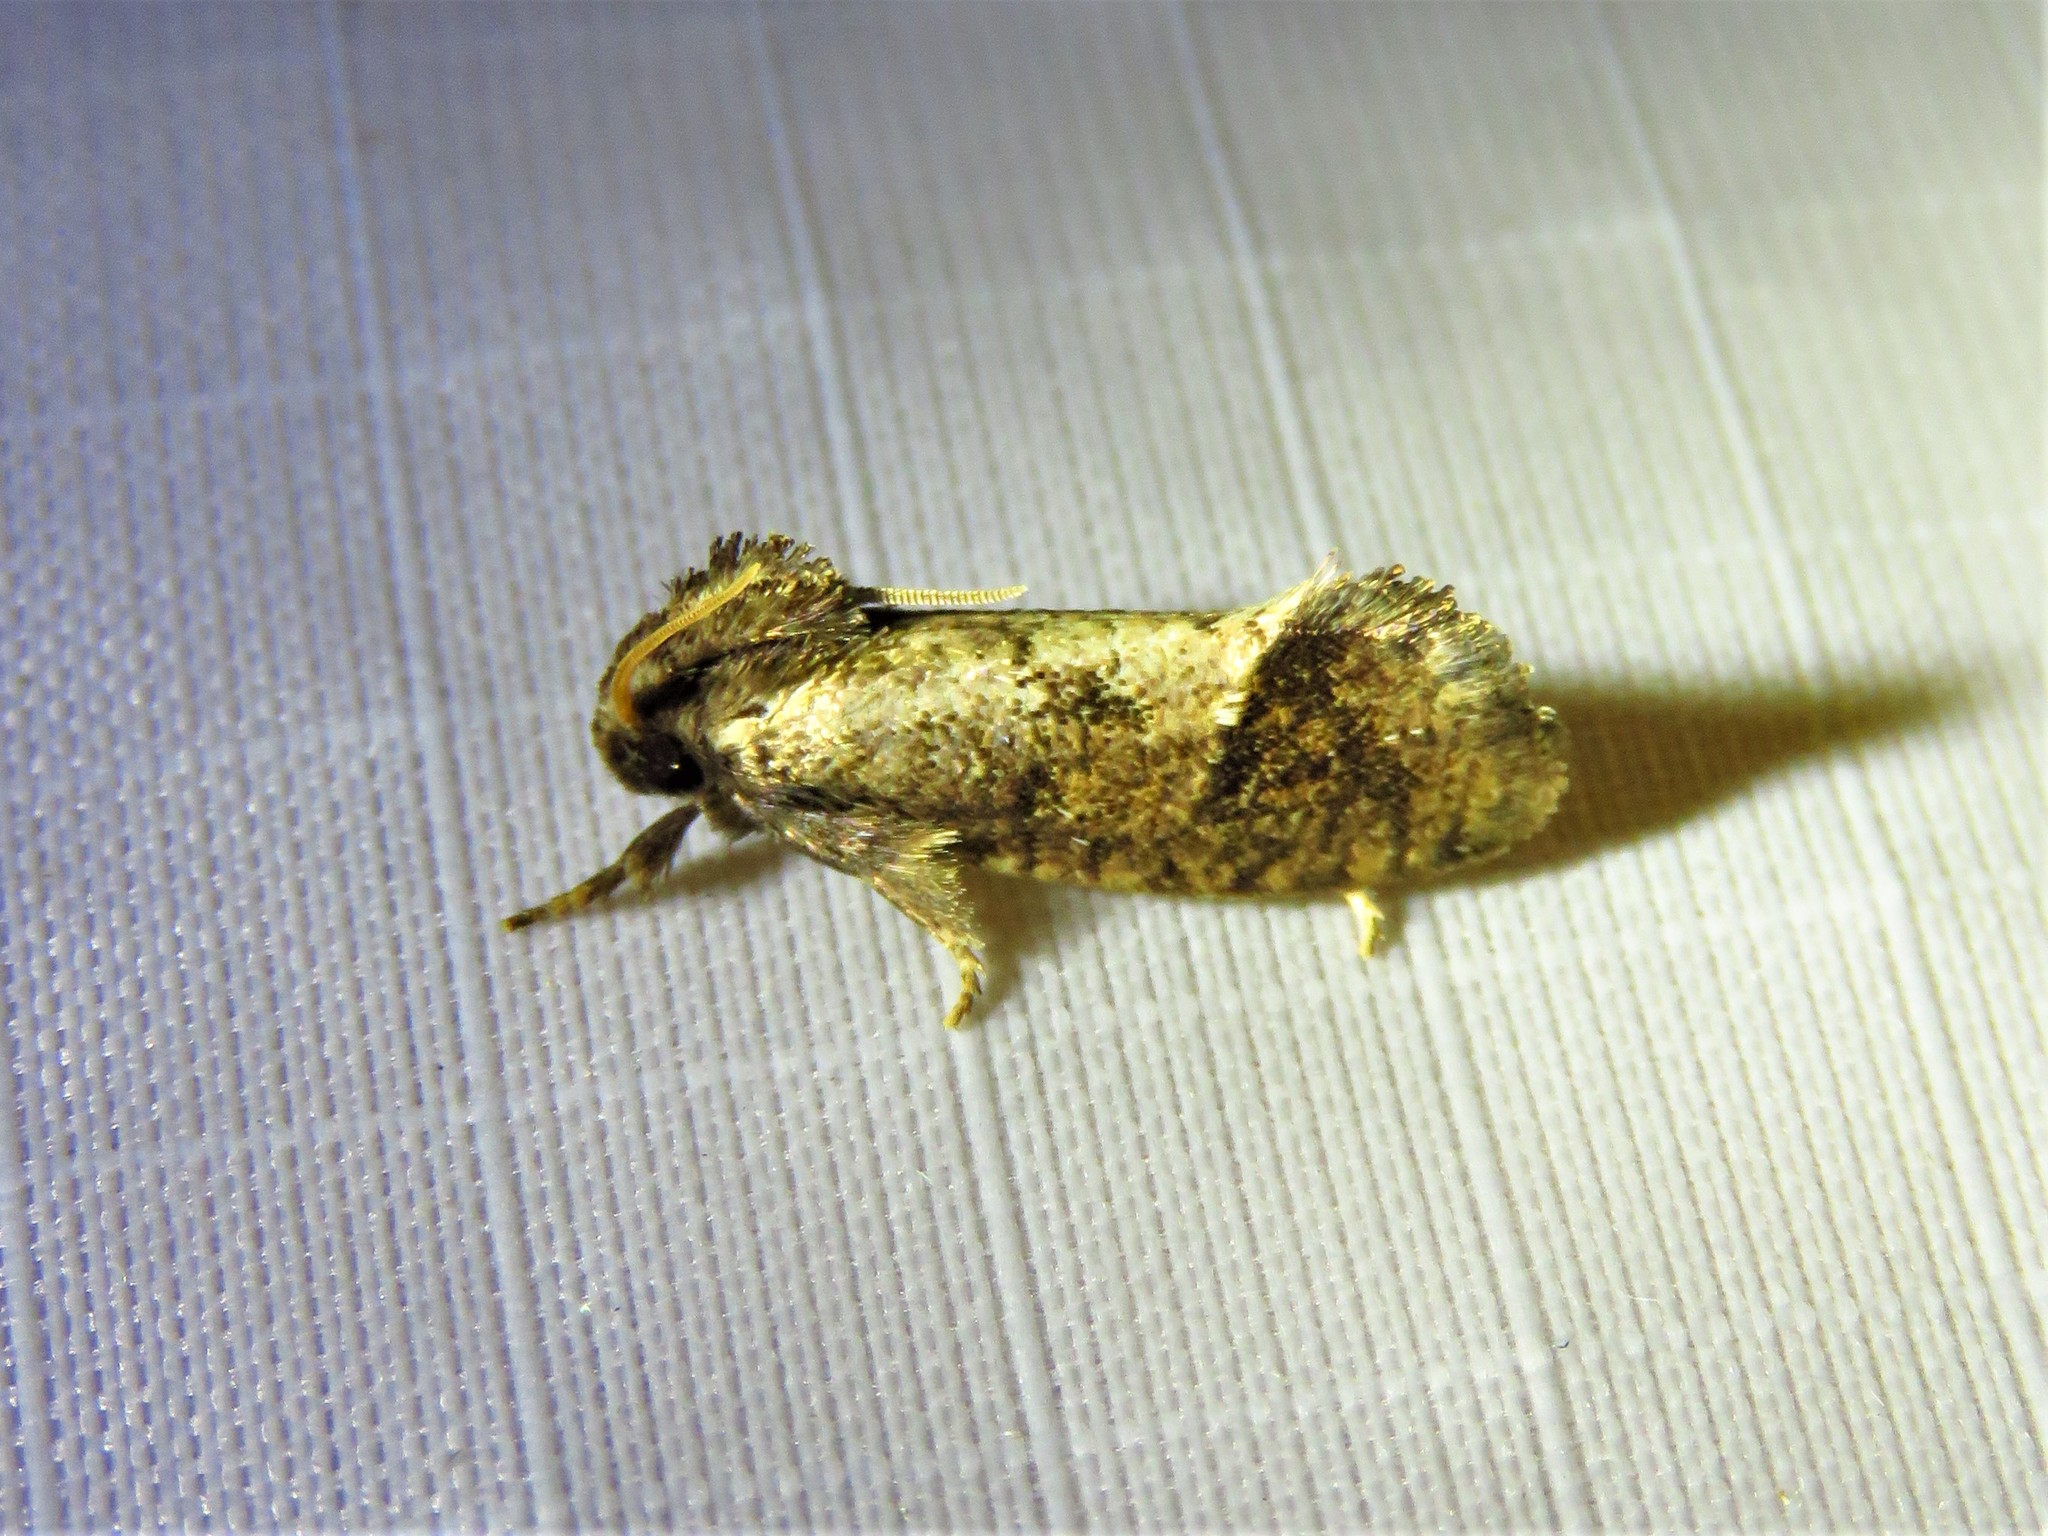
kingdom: Animalia
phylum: Arthropoda
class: Insecta
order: Lepidoptera
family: Tineidae
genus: Acrolophus
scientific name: Acrolophus texanella
